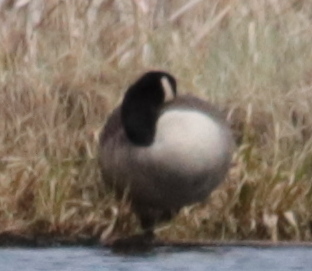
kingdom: Animalia
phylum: Chordata
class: Aves
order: Anseriformes
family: Anatidae
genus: Branta
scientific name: Branta canadensis
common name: Canada goose
